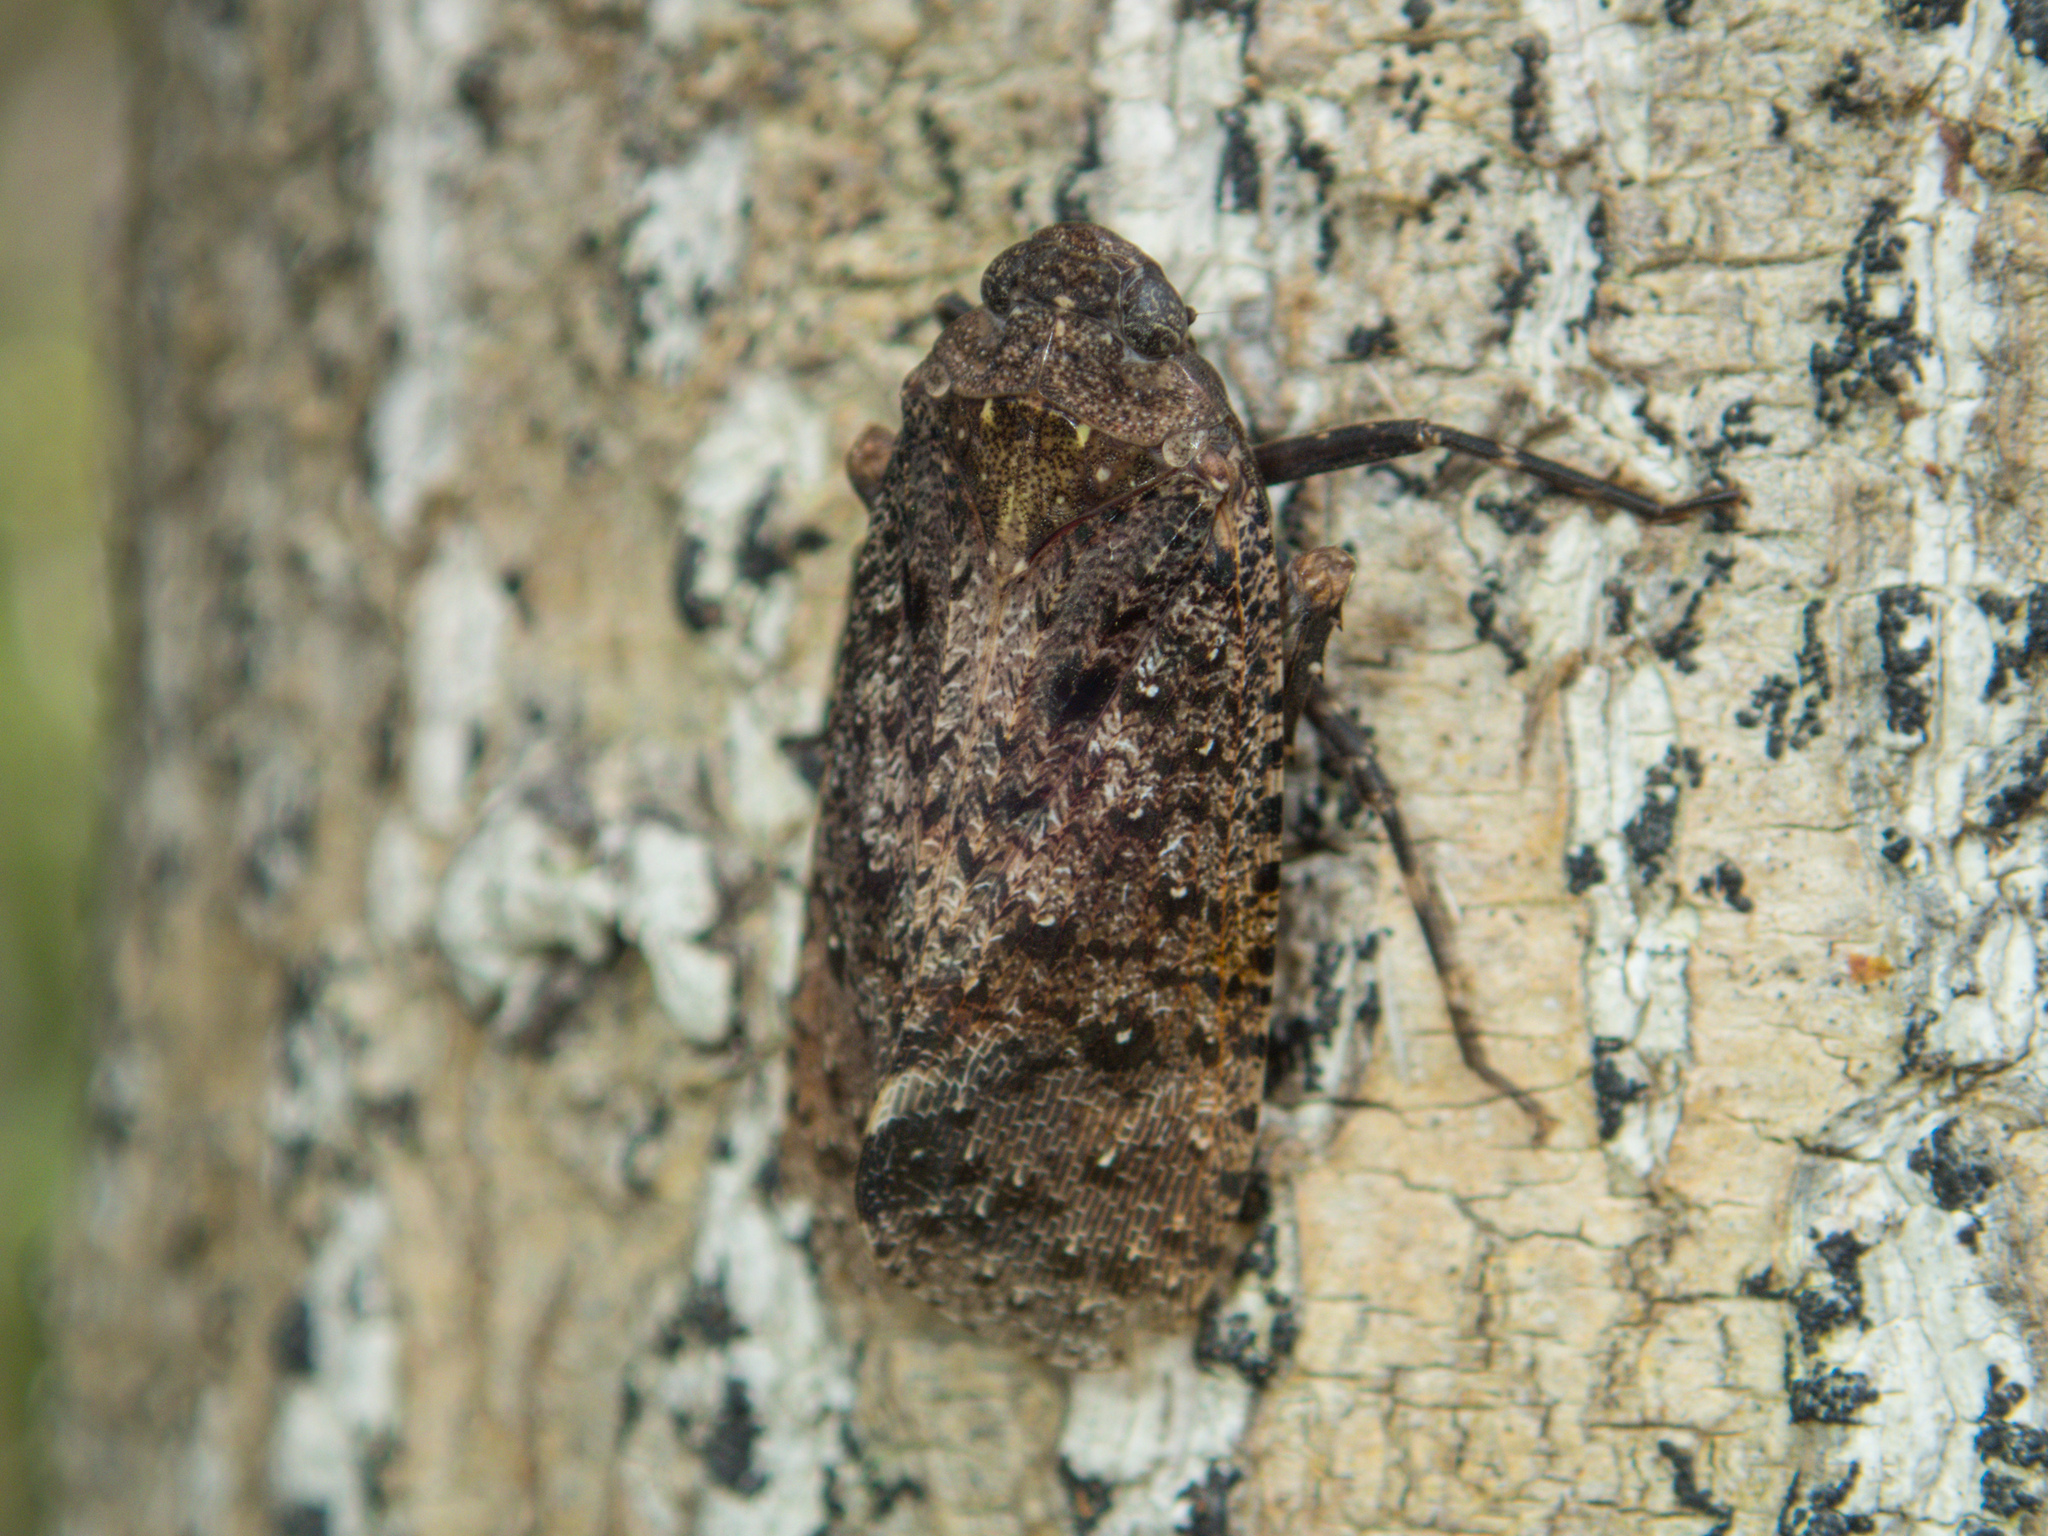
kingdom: Animalia
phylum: Arthropoda
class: Insecta
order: Hemiptera
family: Fulgoridae
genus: Penthicodes
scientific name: Penthicodes pulchella
